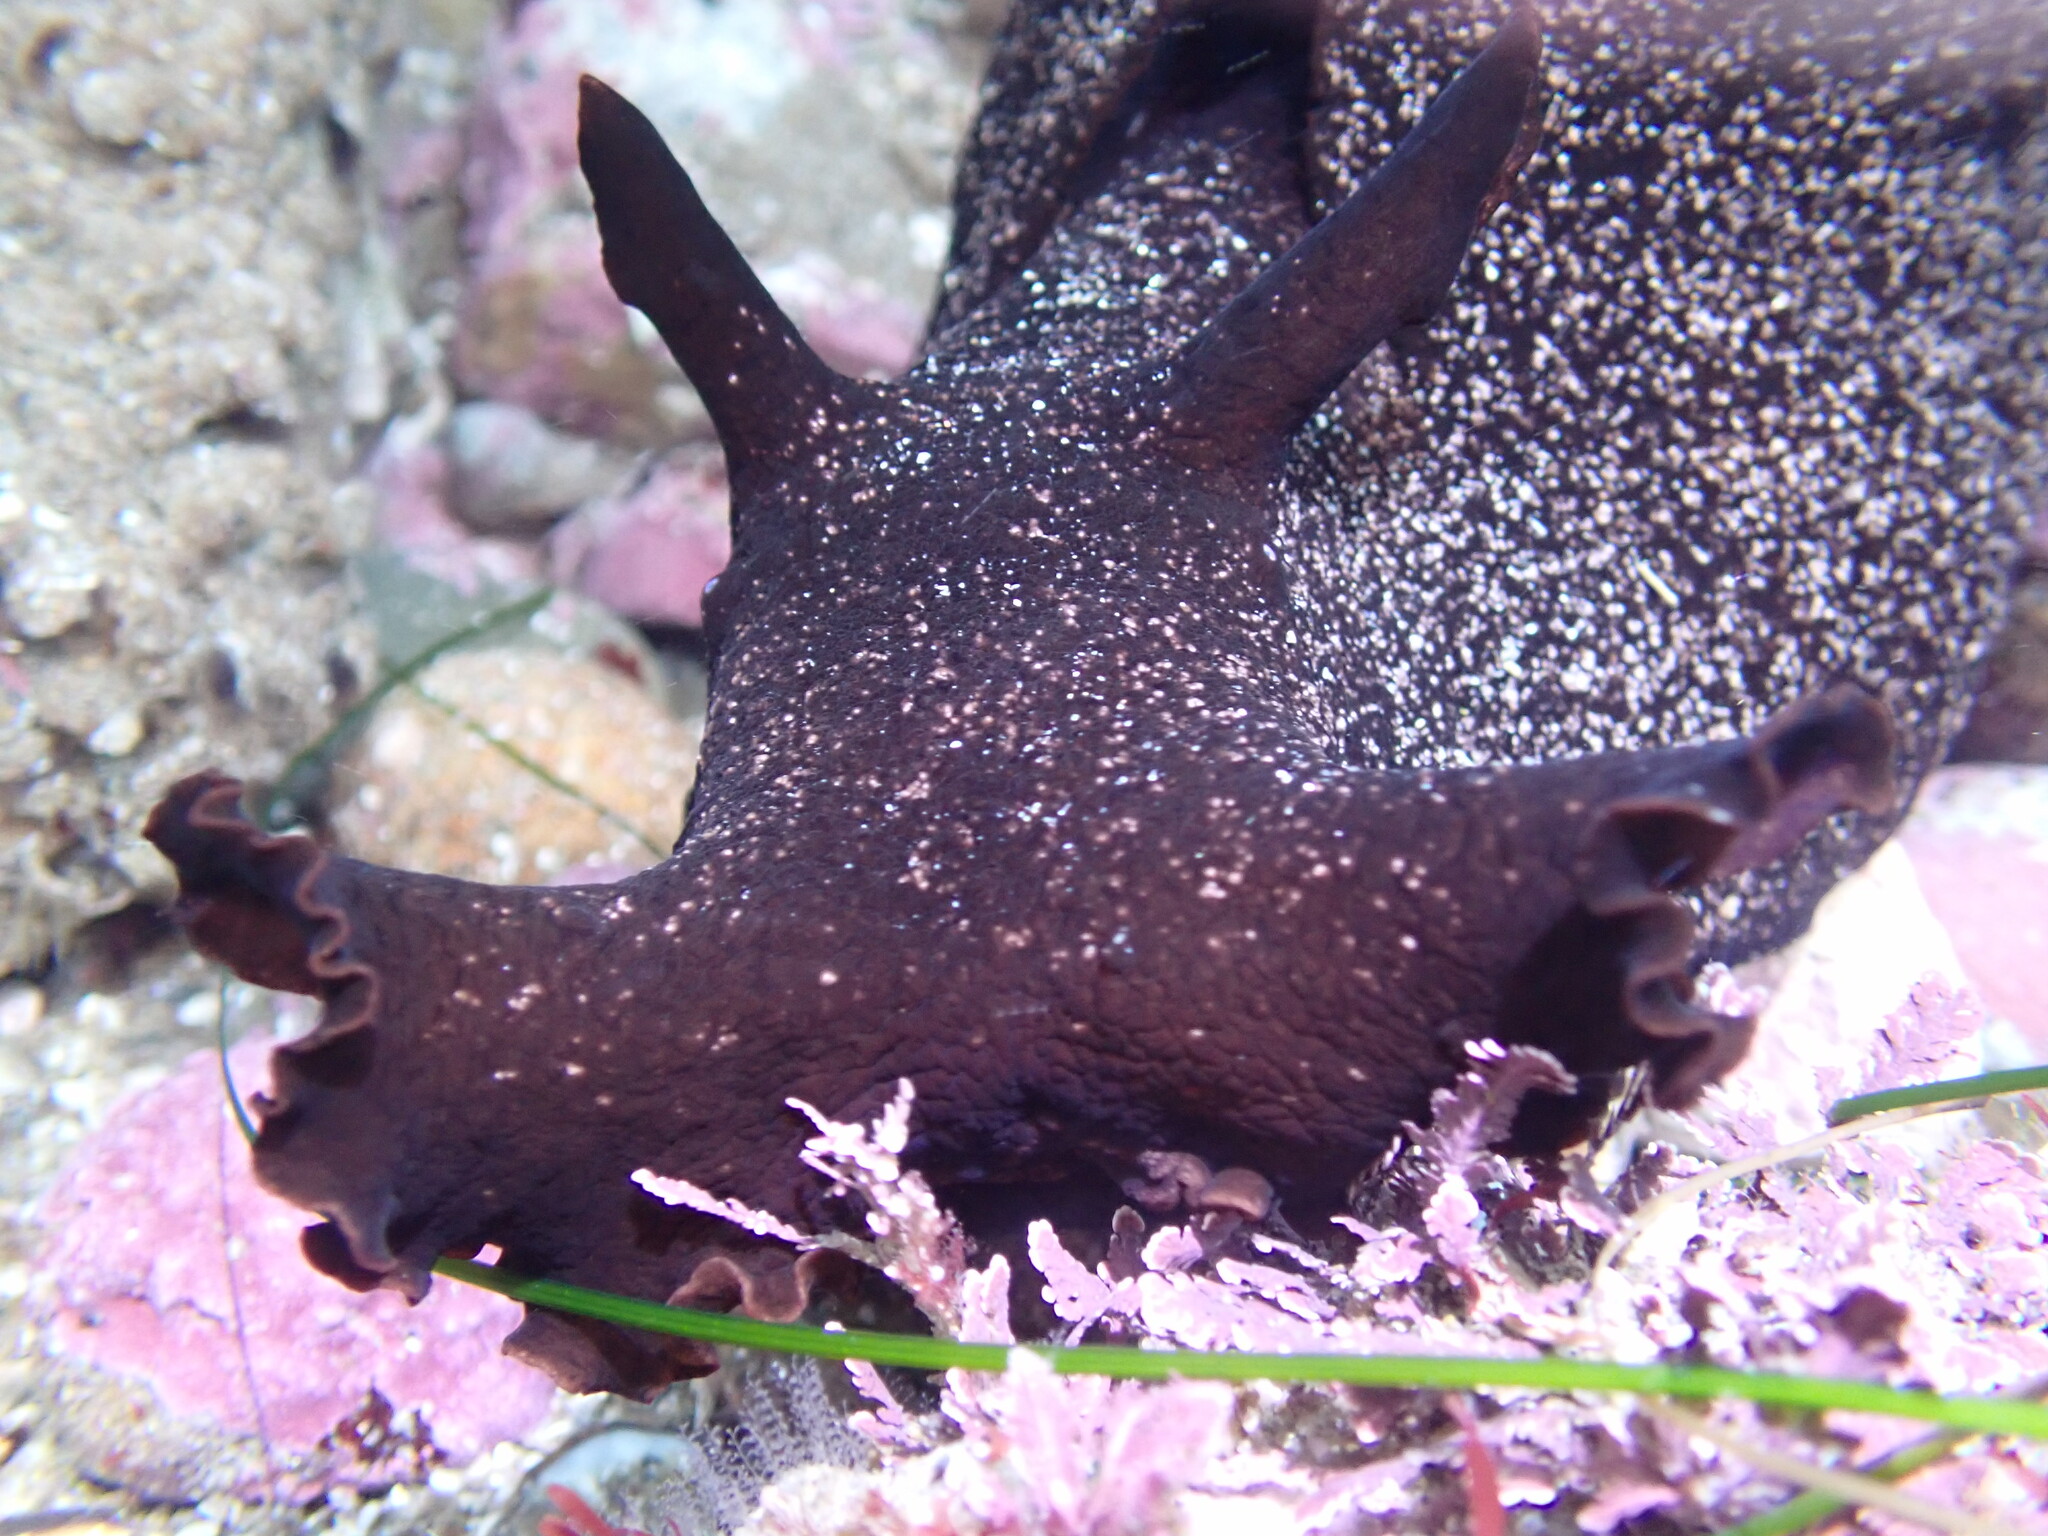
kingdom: Animalia
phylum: Mollusca
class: Gastropoda
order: Aplysiida
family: Aplysiidae
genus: Aplysia
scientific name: Aplysia vaccaria
